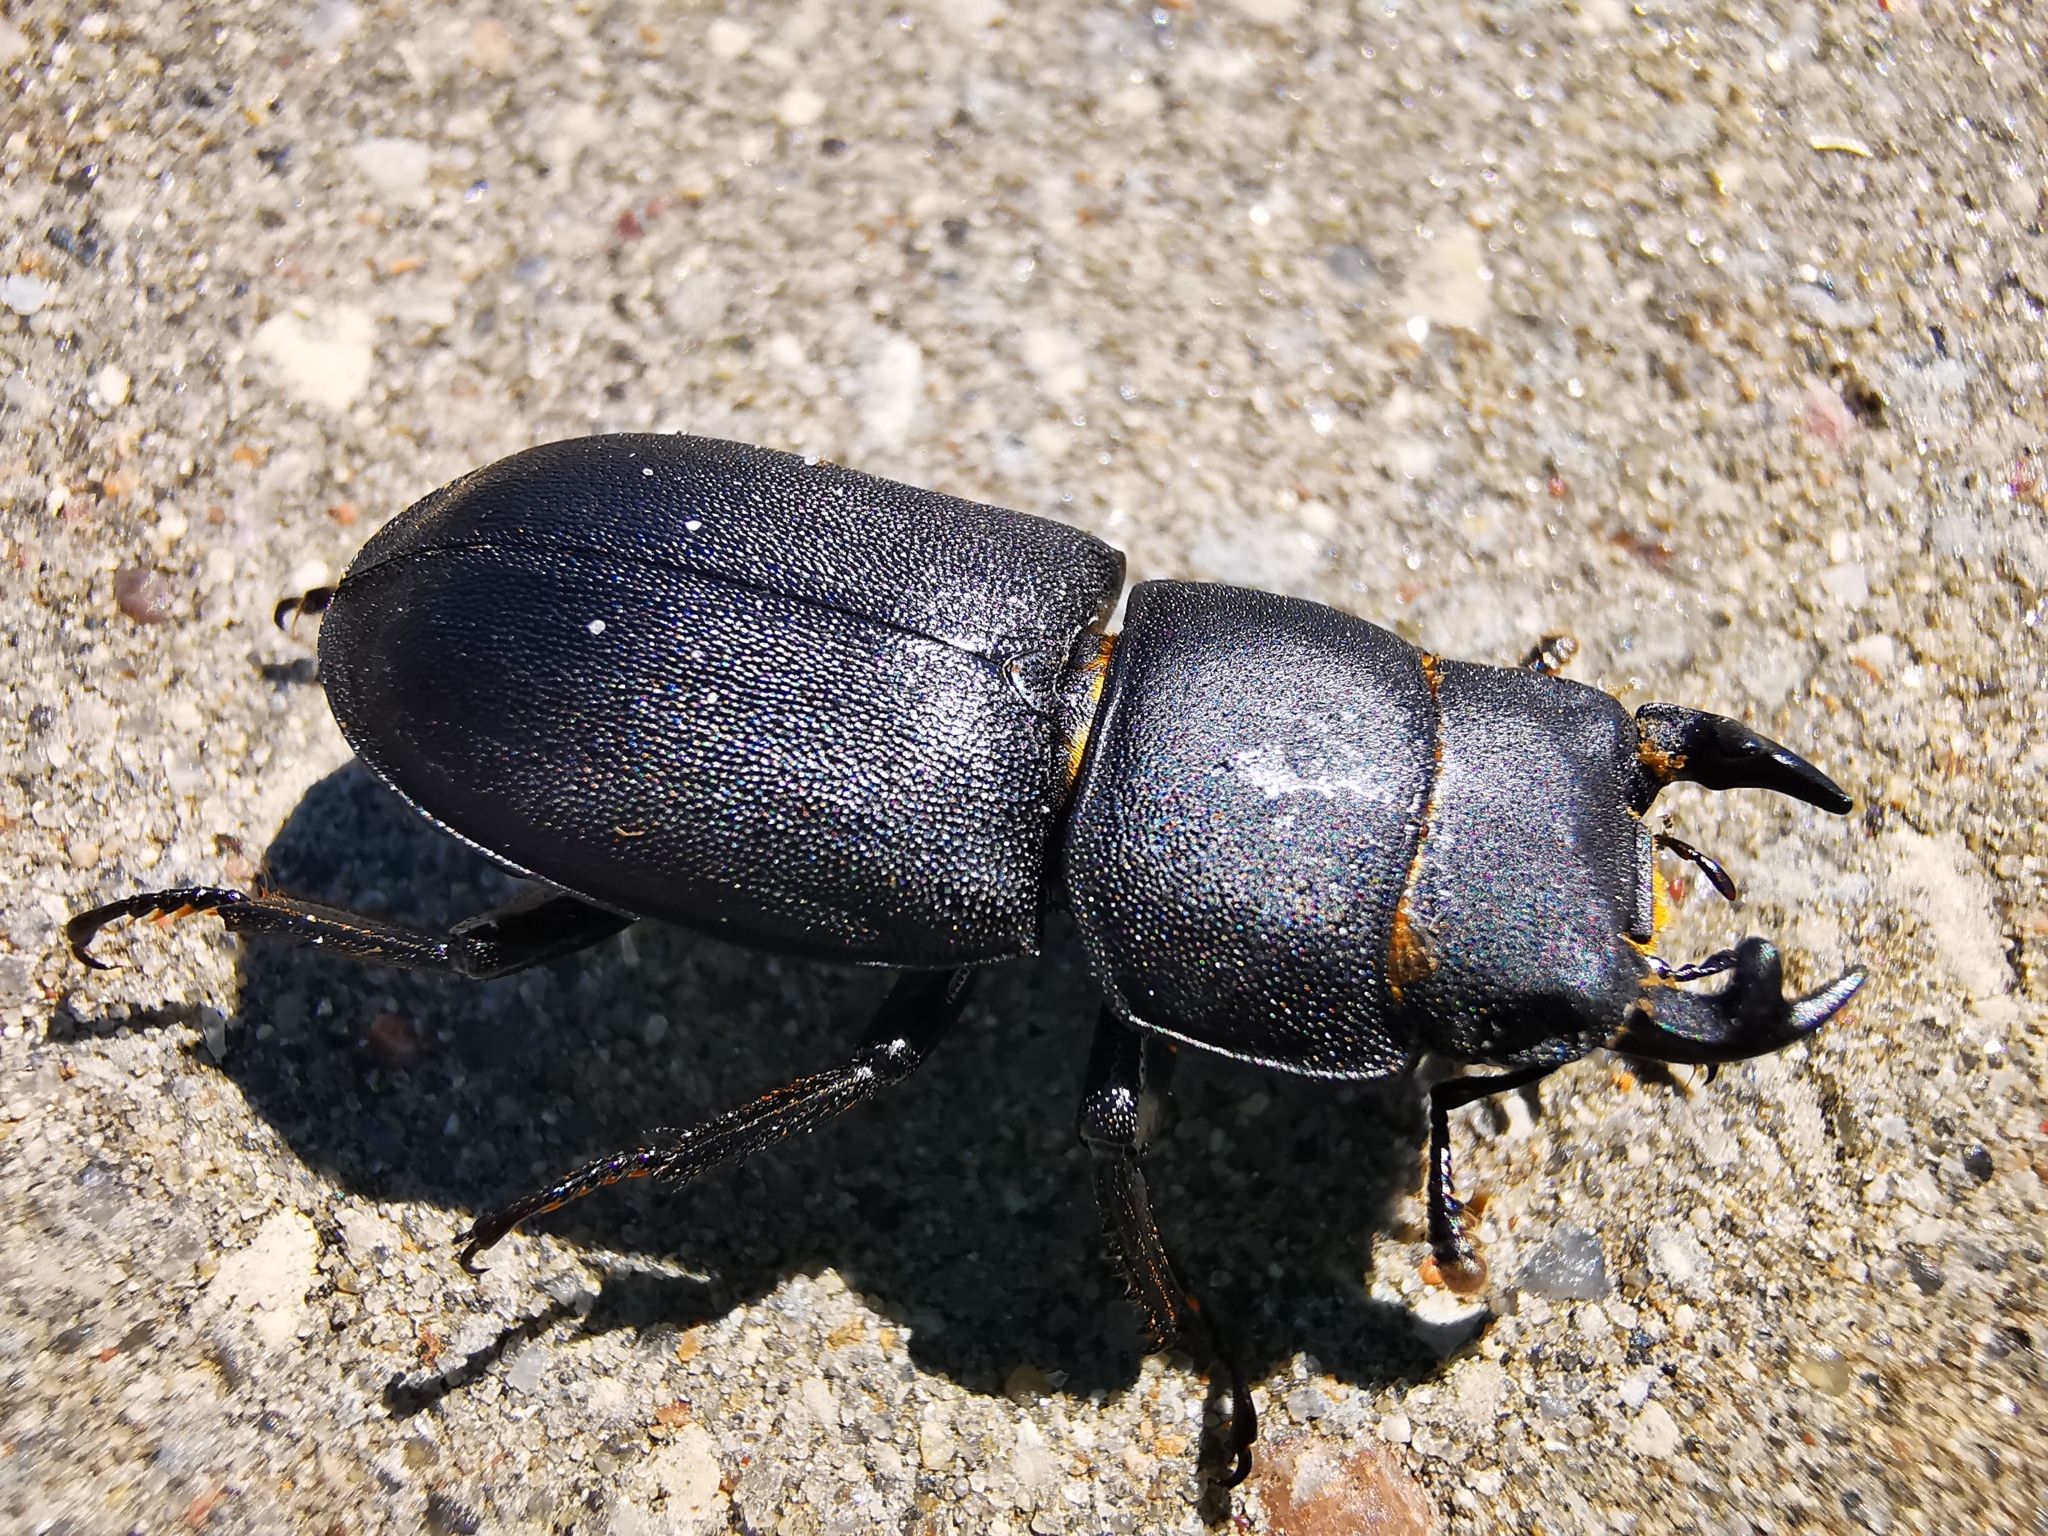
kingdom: Animalia
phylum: Arthropoda
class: Insecta
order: Coleoptera
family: Lucanidae
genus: Dorcus
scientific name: Dorcus parallelipipedus
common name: Lesser stag beetle
